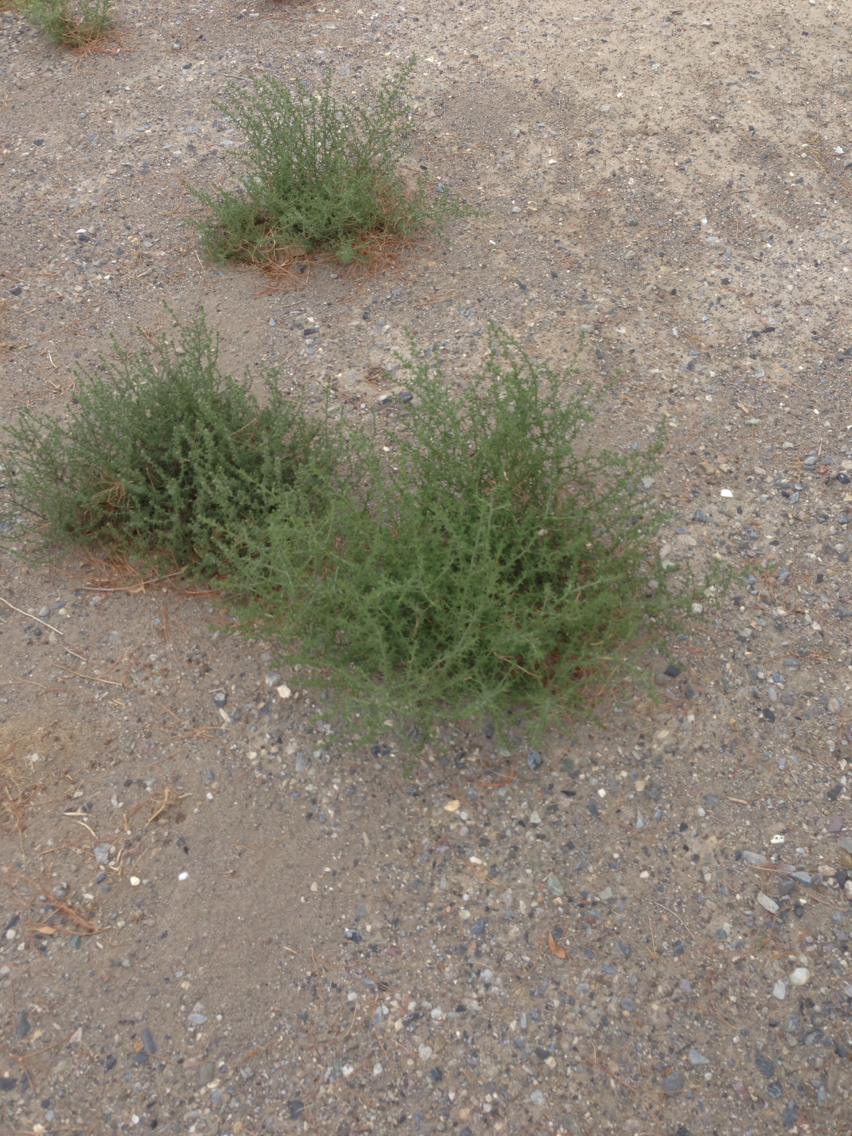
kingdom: Plantae
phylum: Tracheophyta
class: Magnoliopsida
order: Caryophyllales
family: Amaranthaceae
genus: Salsola
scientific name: Salsola tragus
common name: Prickly russian thistle
